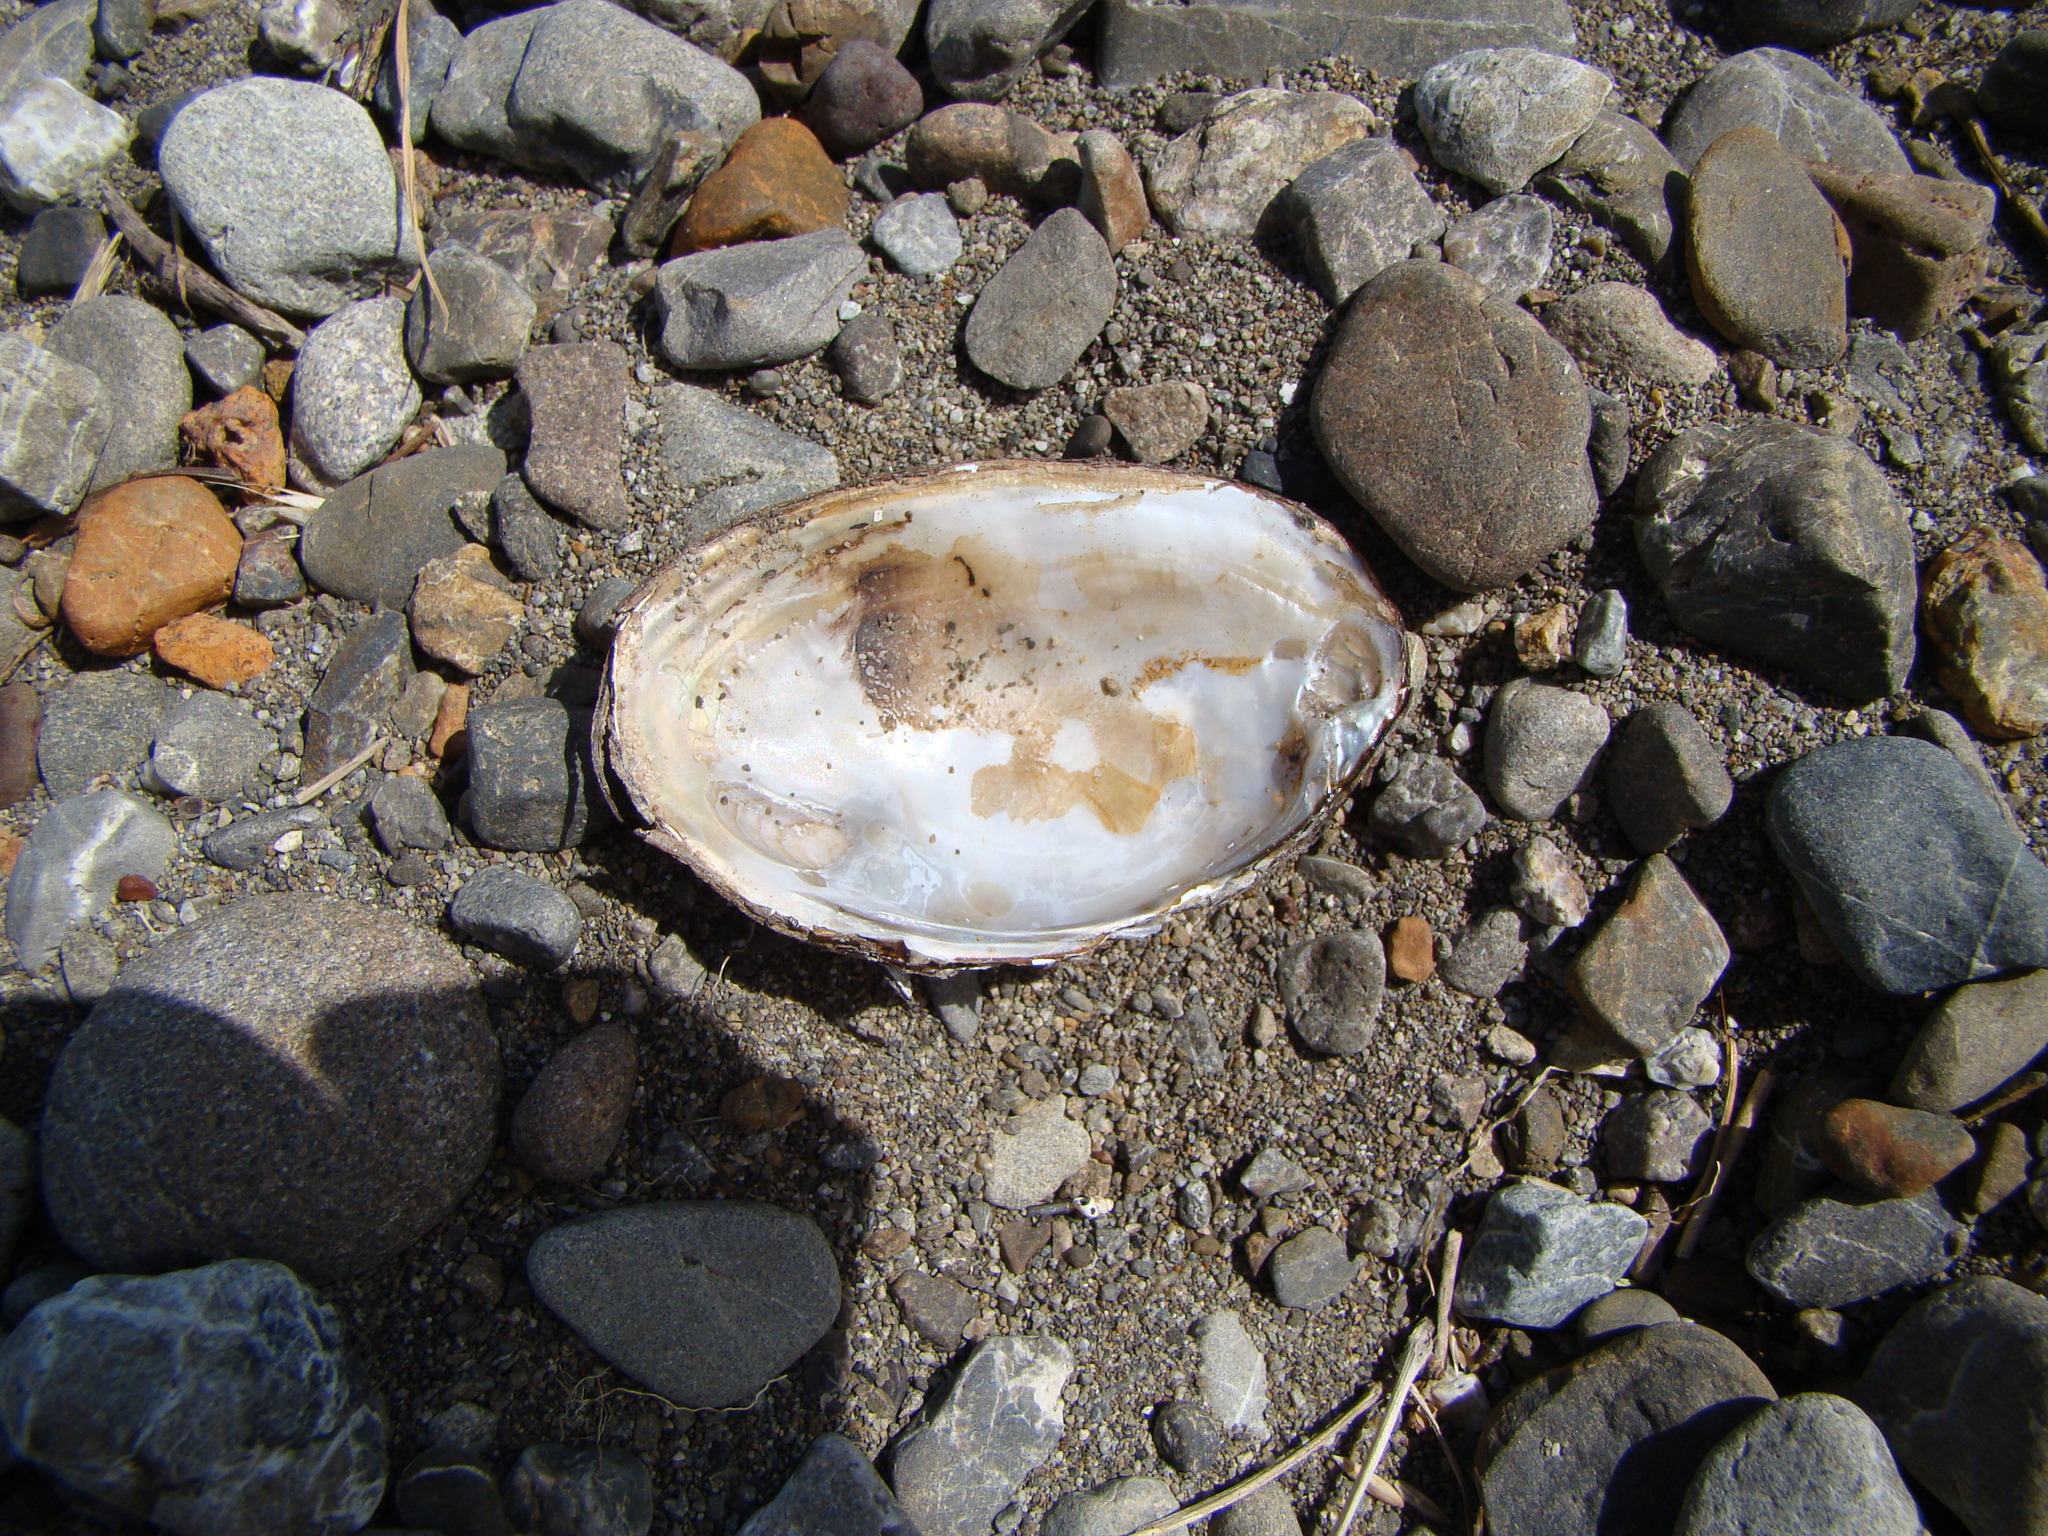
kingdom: Animalia
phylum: Mollusca
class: Bivalvia
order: Unionida
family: Hyriidae
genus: Echyridella
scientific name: Echyridella menziesii
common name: New zealand freshwater mussel
